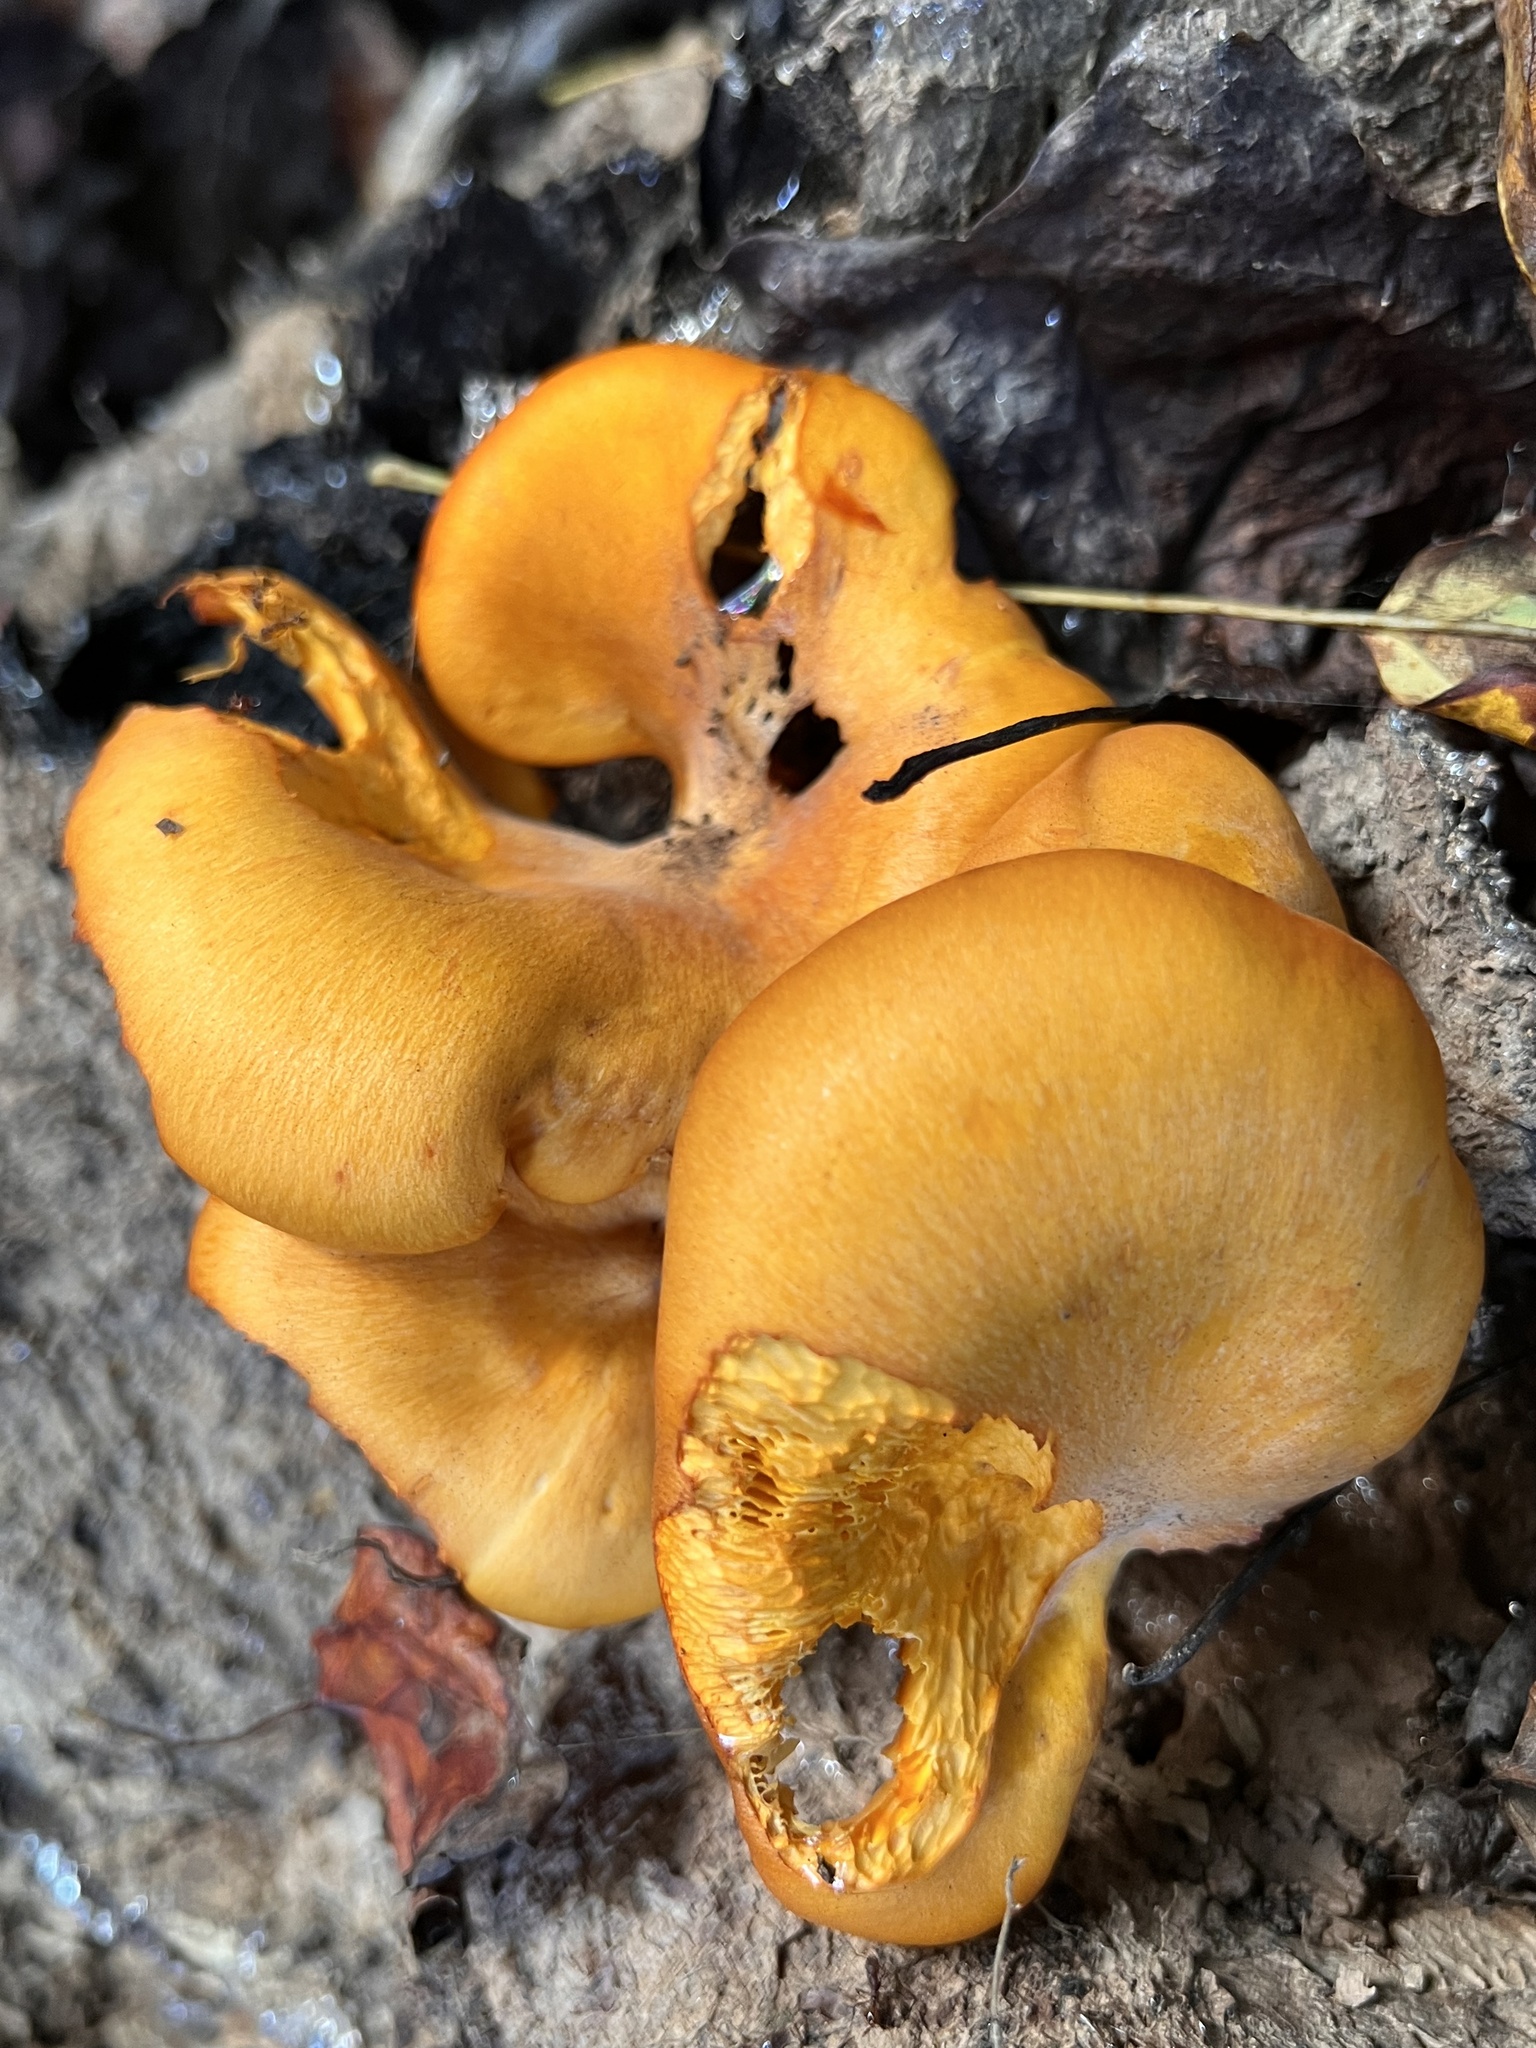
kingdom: Fungi
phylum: Basidiomycota
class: Agaricomycetes
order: Agaricales
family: Omphalotaceae
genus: Omphalotus
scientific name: Omphalotus illudens
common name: Jack o lantern
